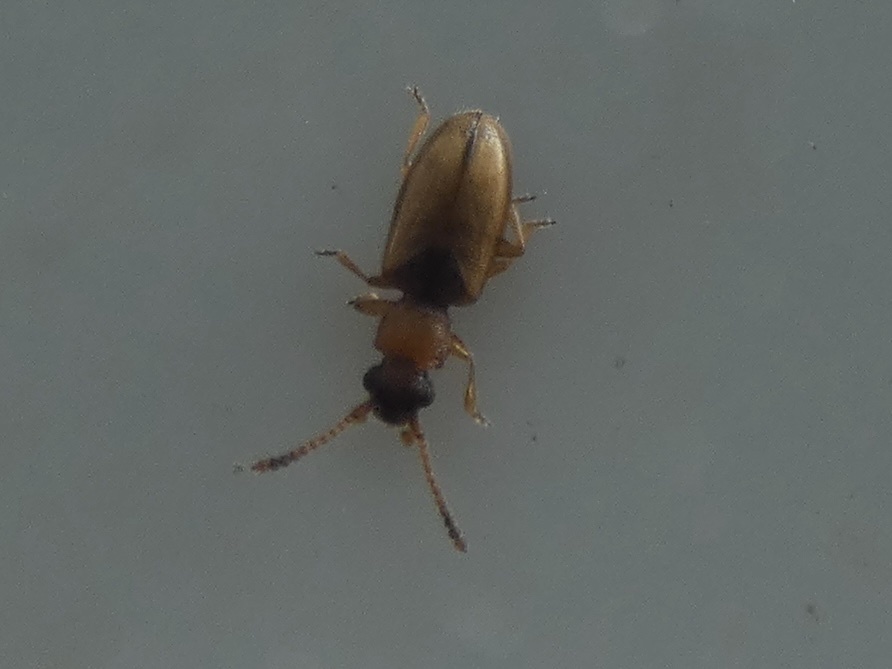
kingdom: Animalia
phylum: Arthropoda
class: Insecta
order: Coleoptera
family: Silvanidae
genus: Psammoecus
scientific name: Psammoecus bipunctatus
